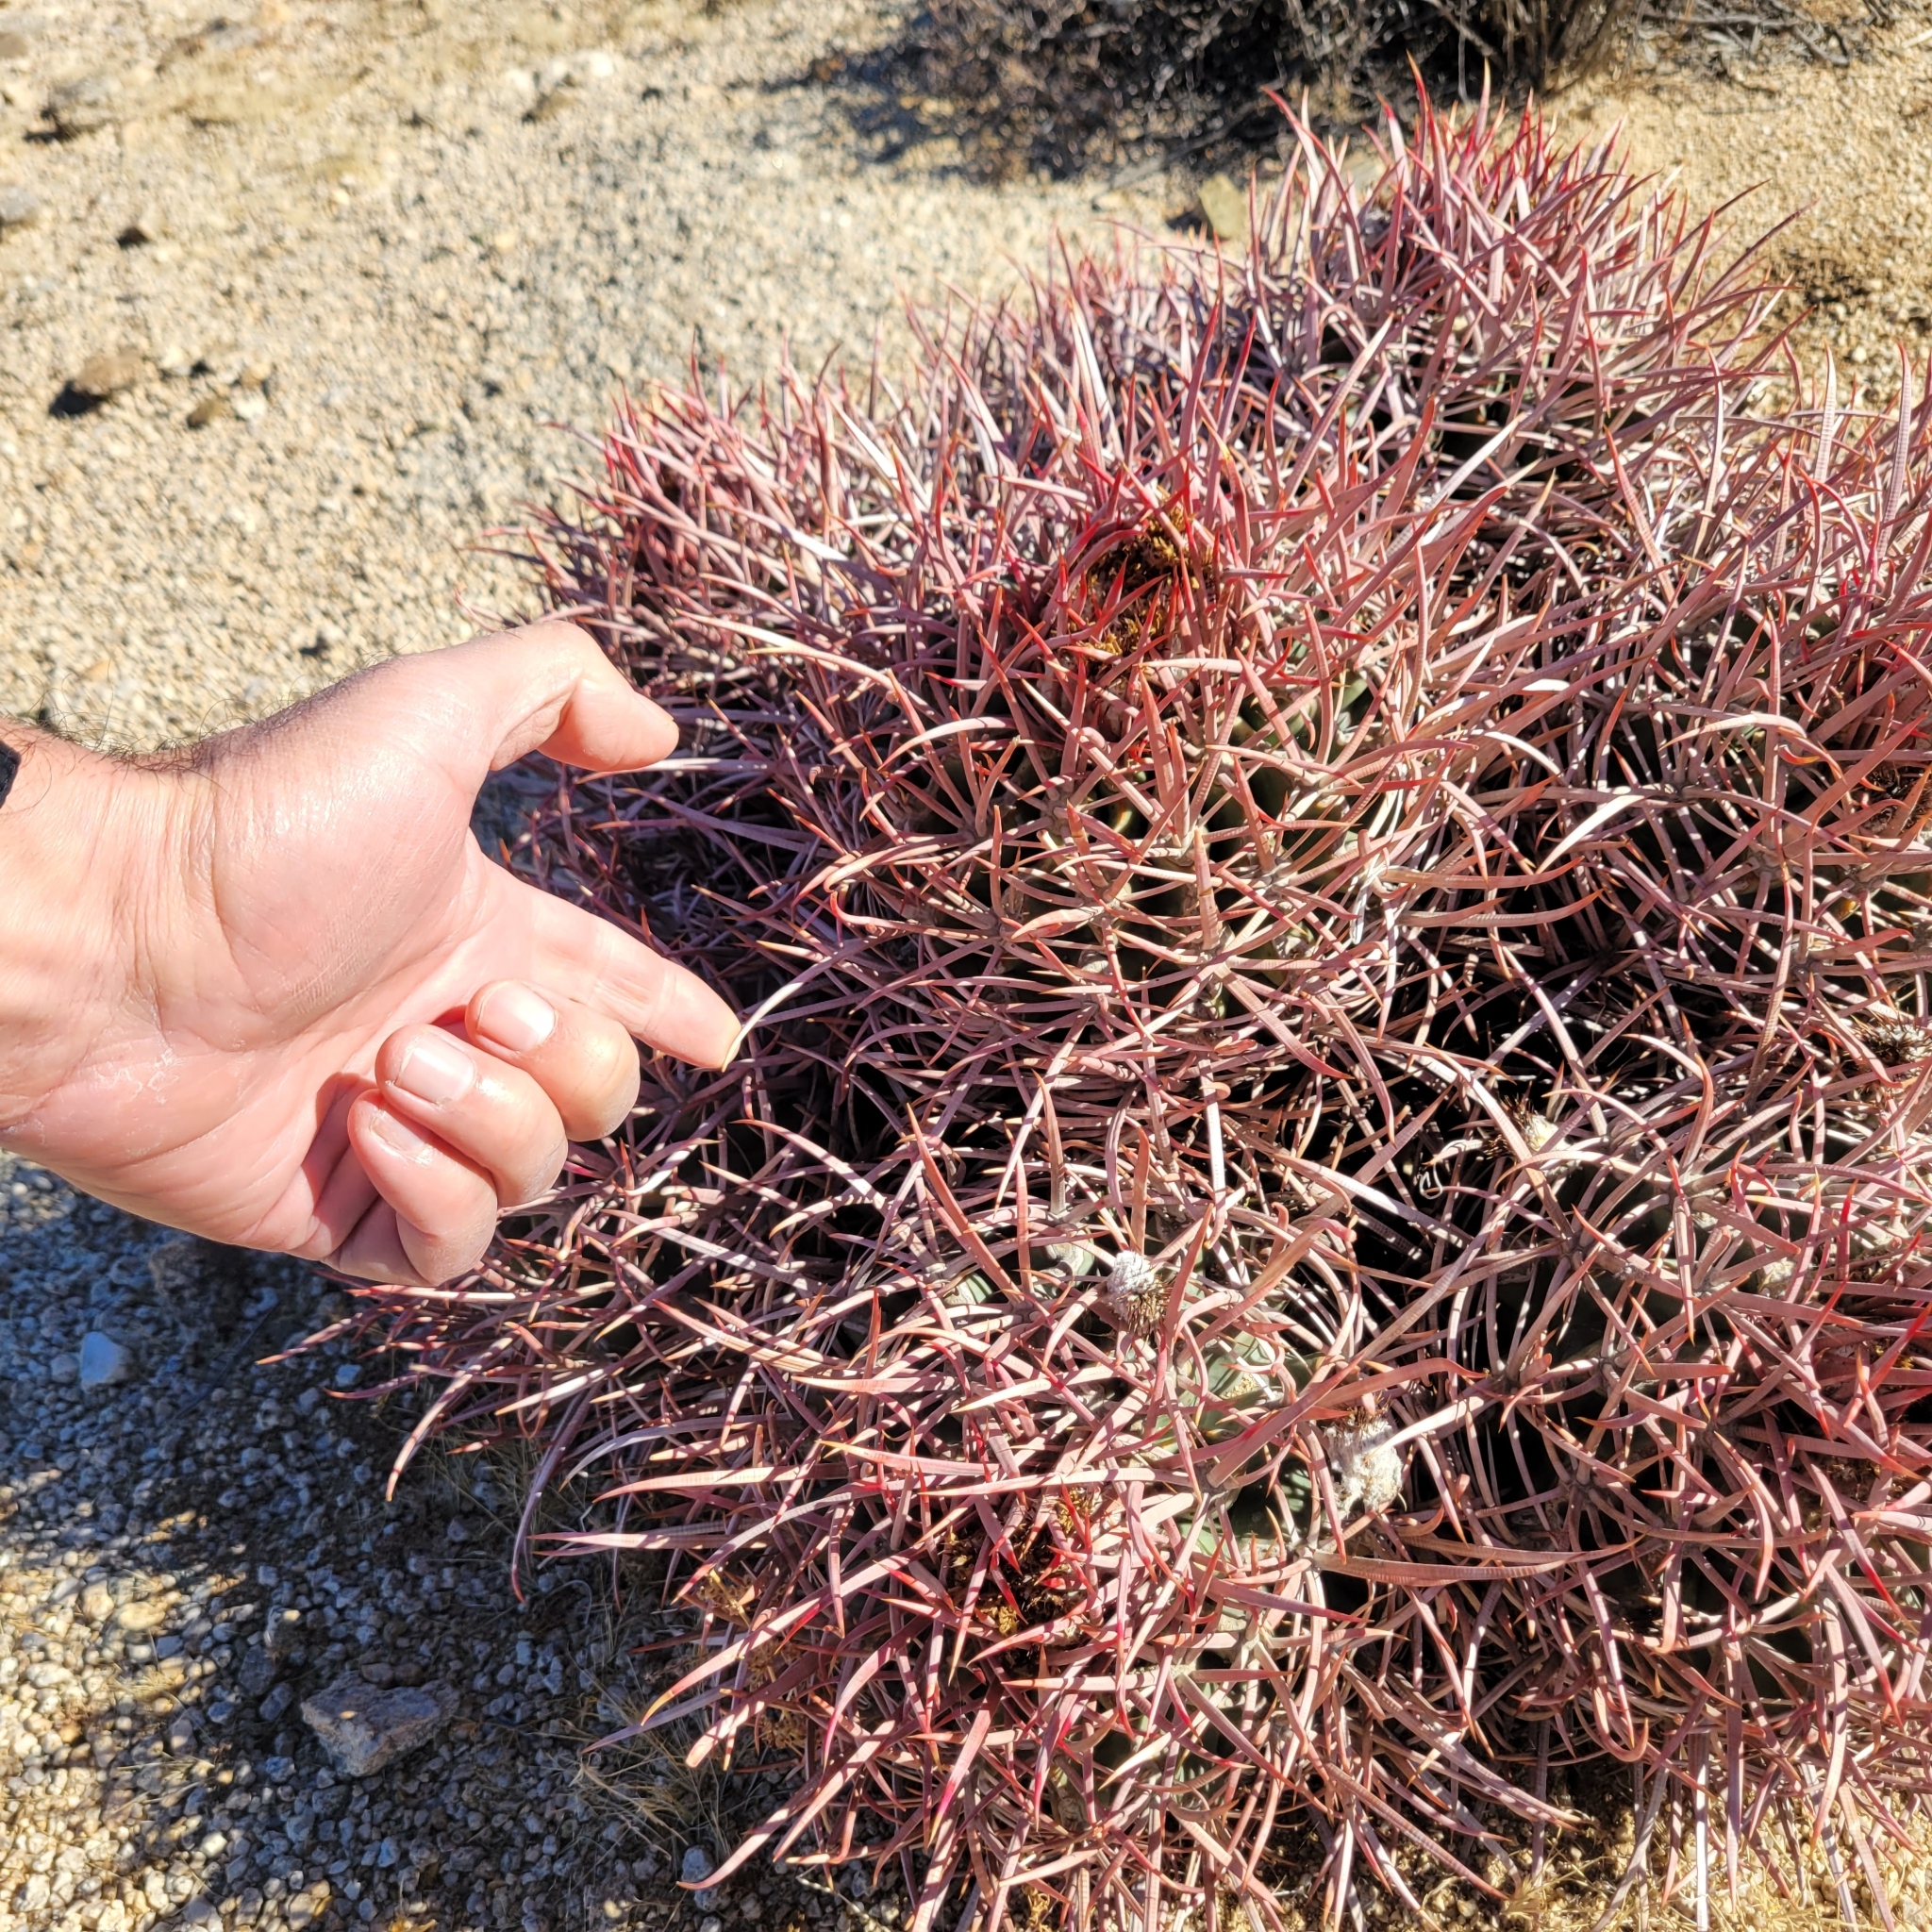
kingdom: Plantae
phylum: Tracheophyta
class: Magnoliopsida
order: Caryophyllales
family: Cactaceae
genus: Echinocactus
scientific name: Echinocactus polycephalus
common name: Cottontop cactus
